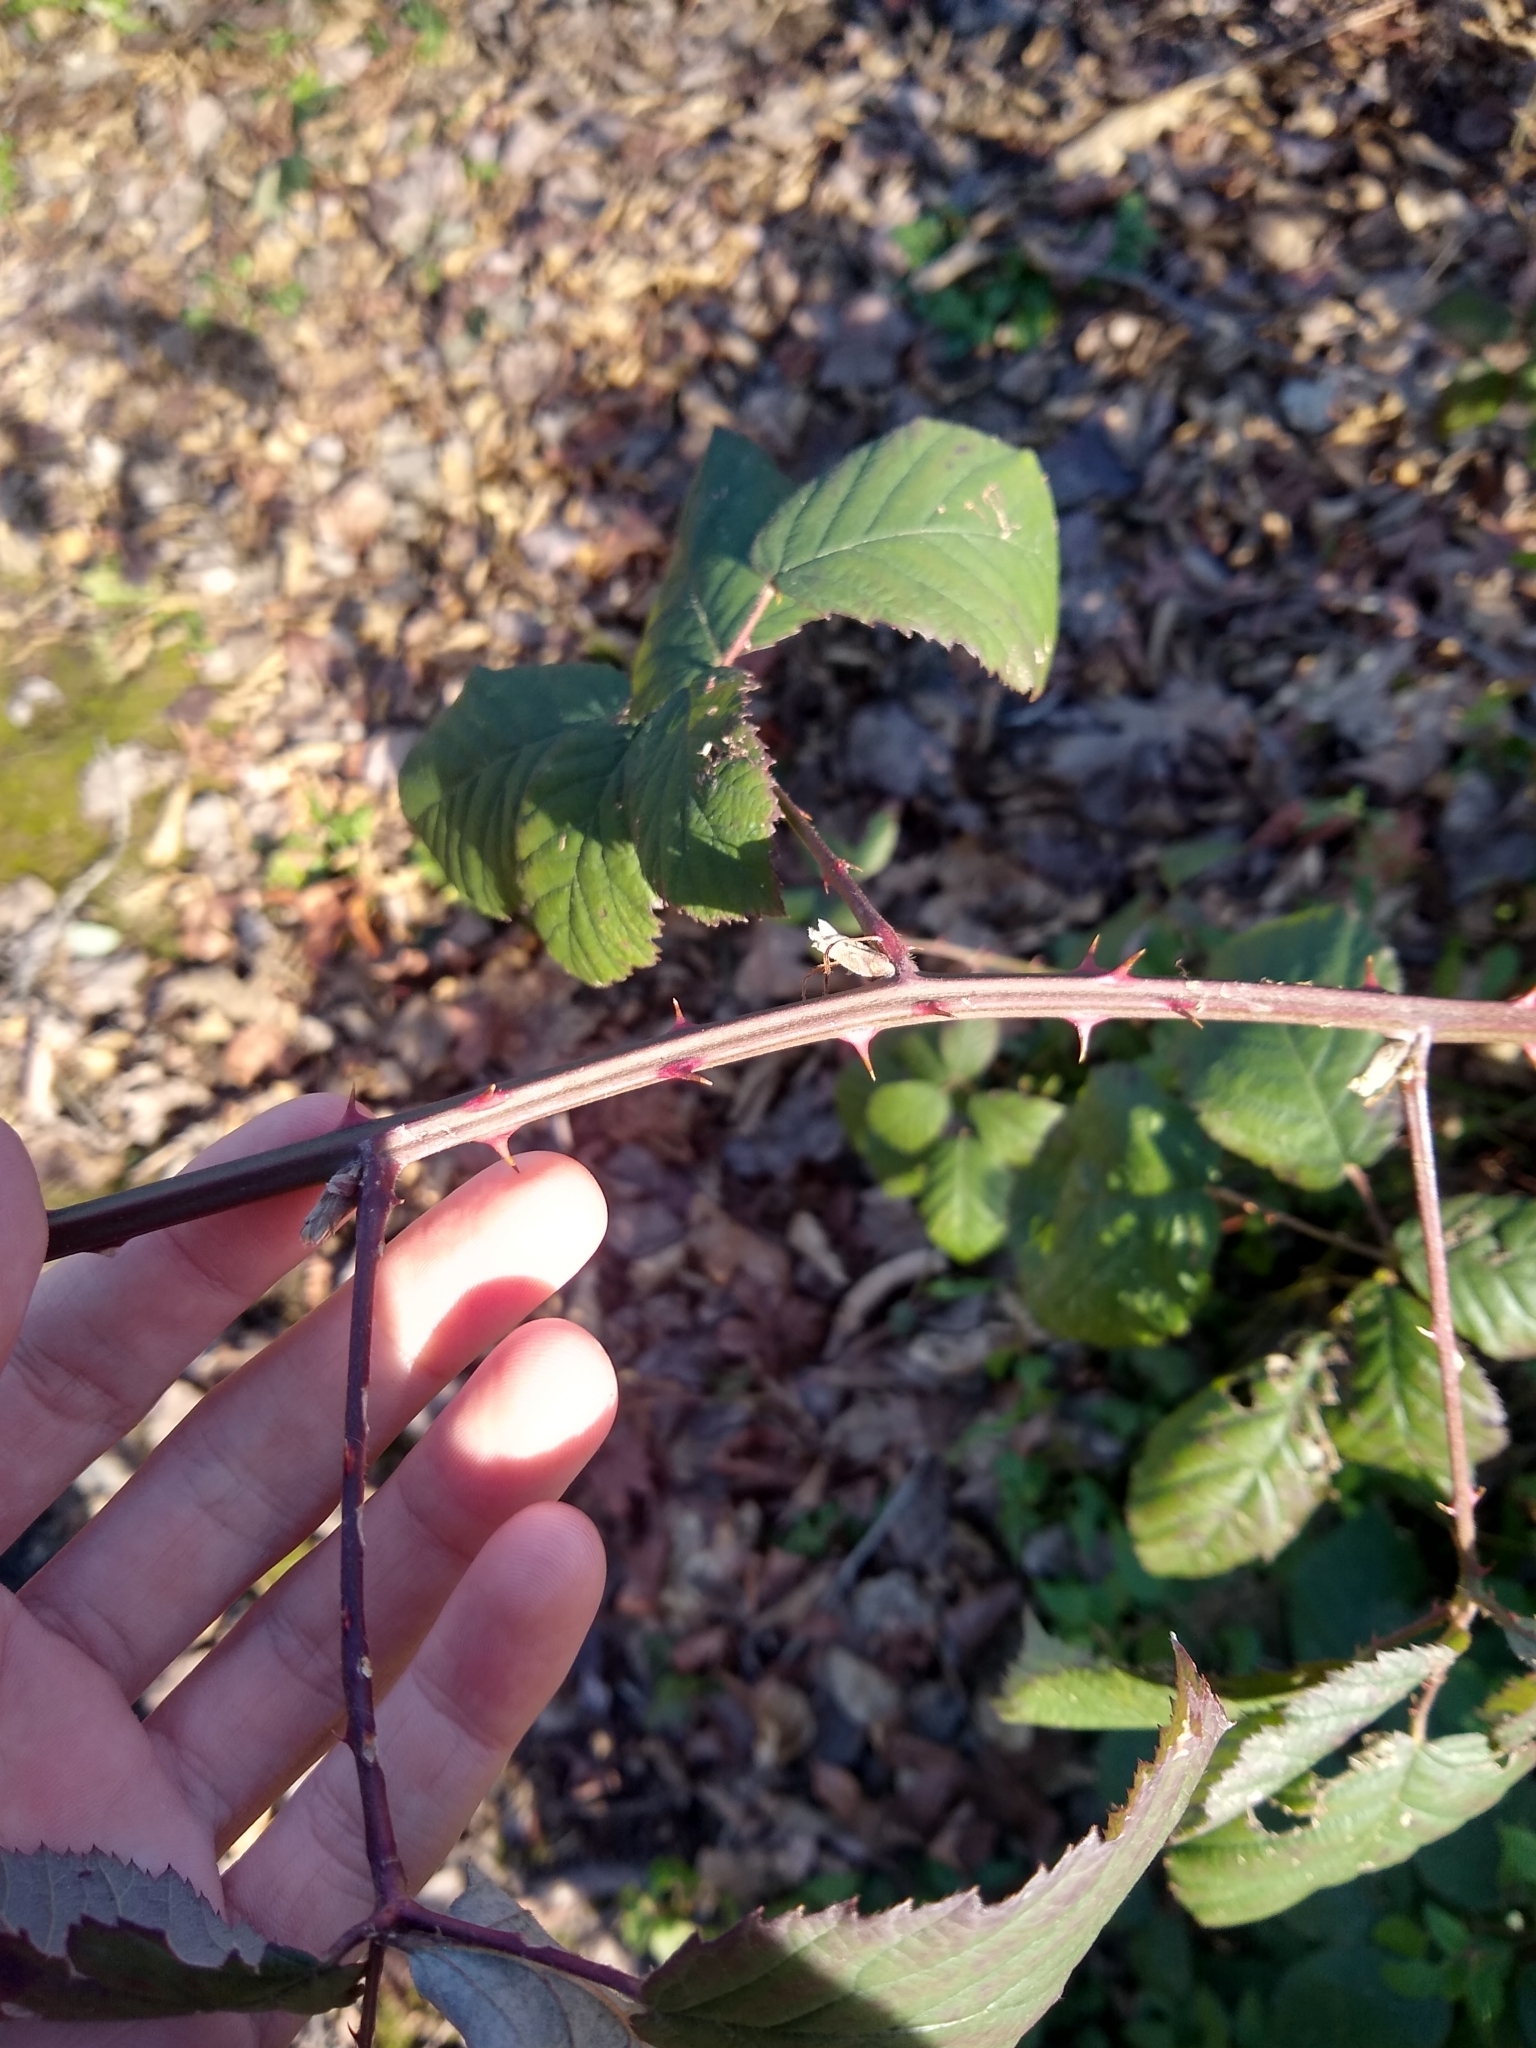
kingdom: Plantae
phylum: Tracheophyta
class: Magnoliopsida
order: Rosales
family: Rosaceae
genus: Rubus
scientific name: Rubus bifrons
